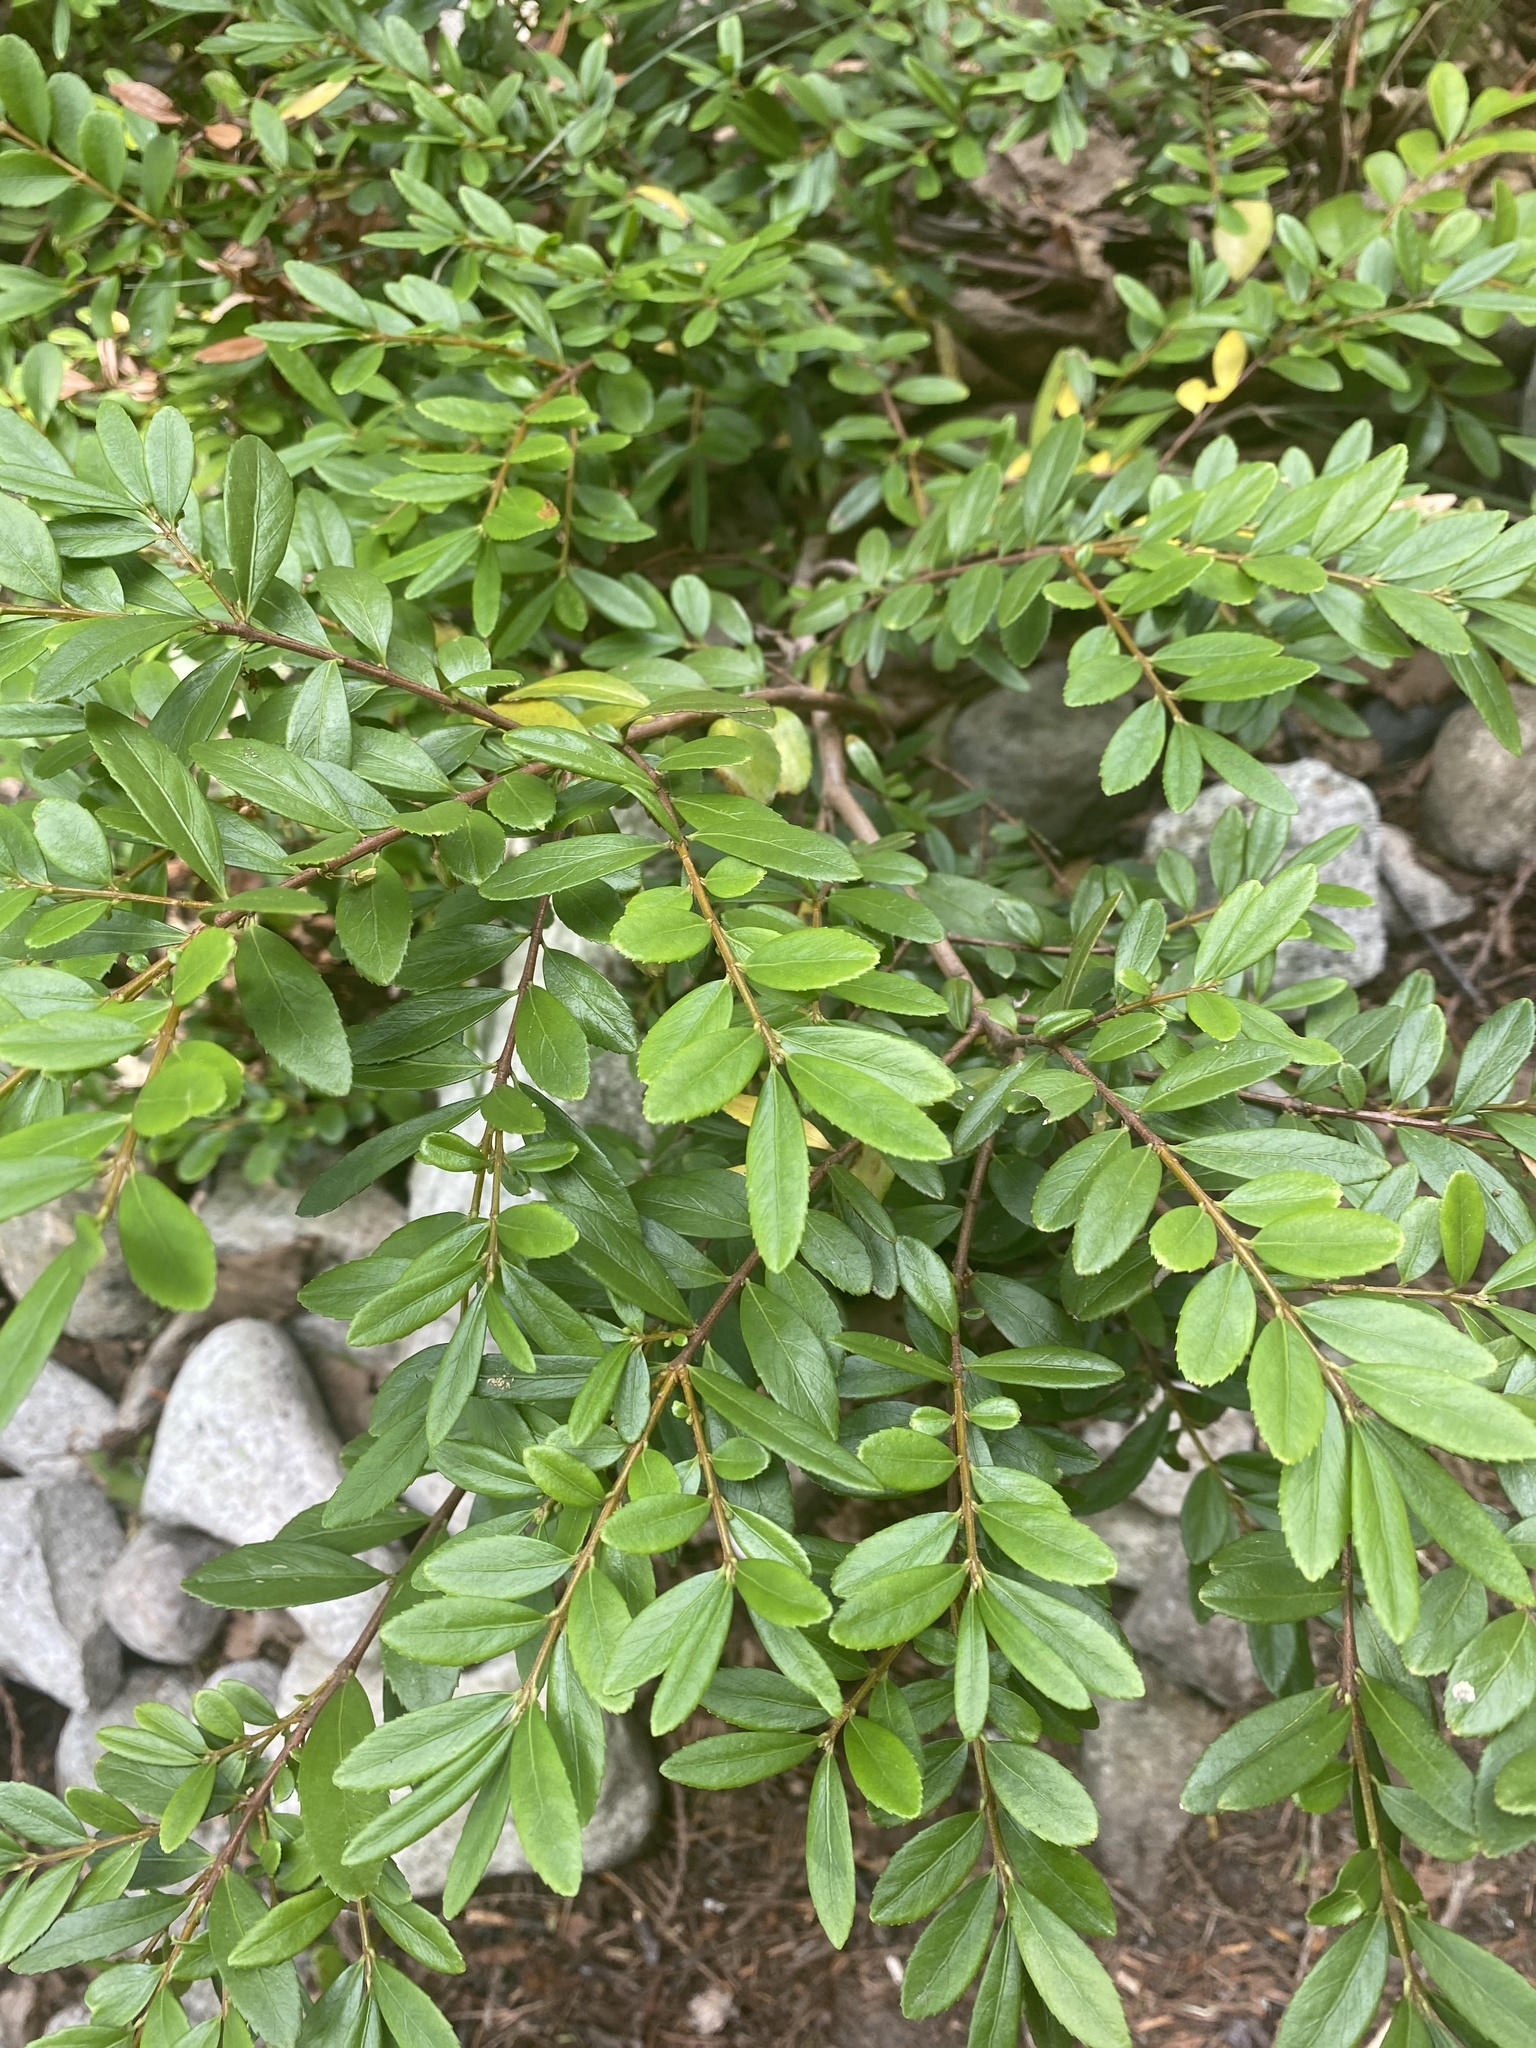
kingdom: Plantae
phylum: Tracheophyta
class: Magnoliopsida
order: Celastrales
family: Celastraceae
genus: Paxistima
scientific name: Paxistima myrsinites
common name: Mountain-lover
